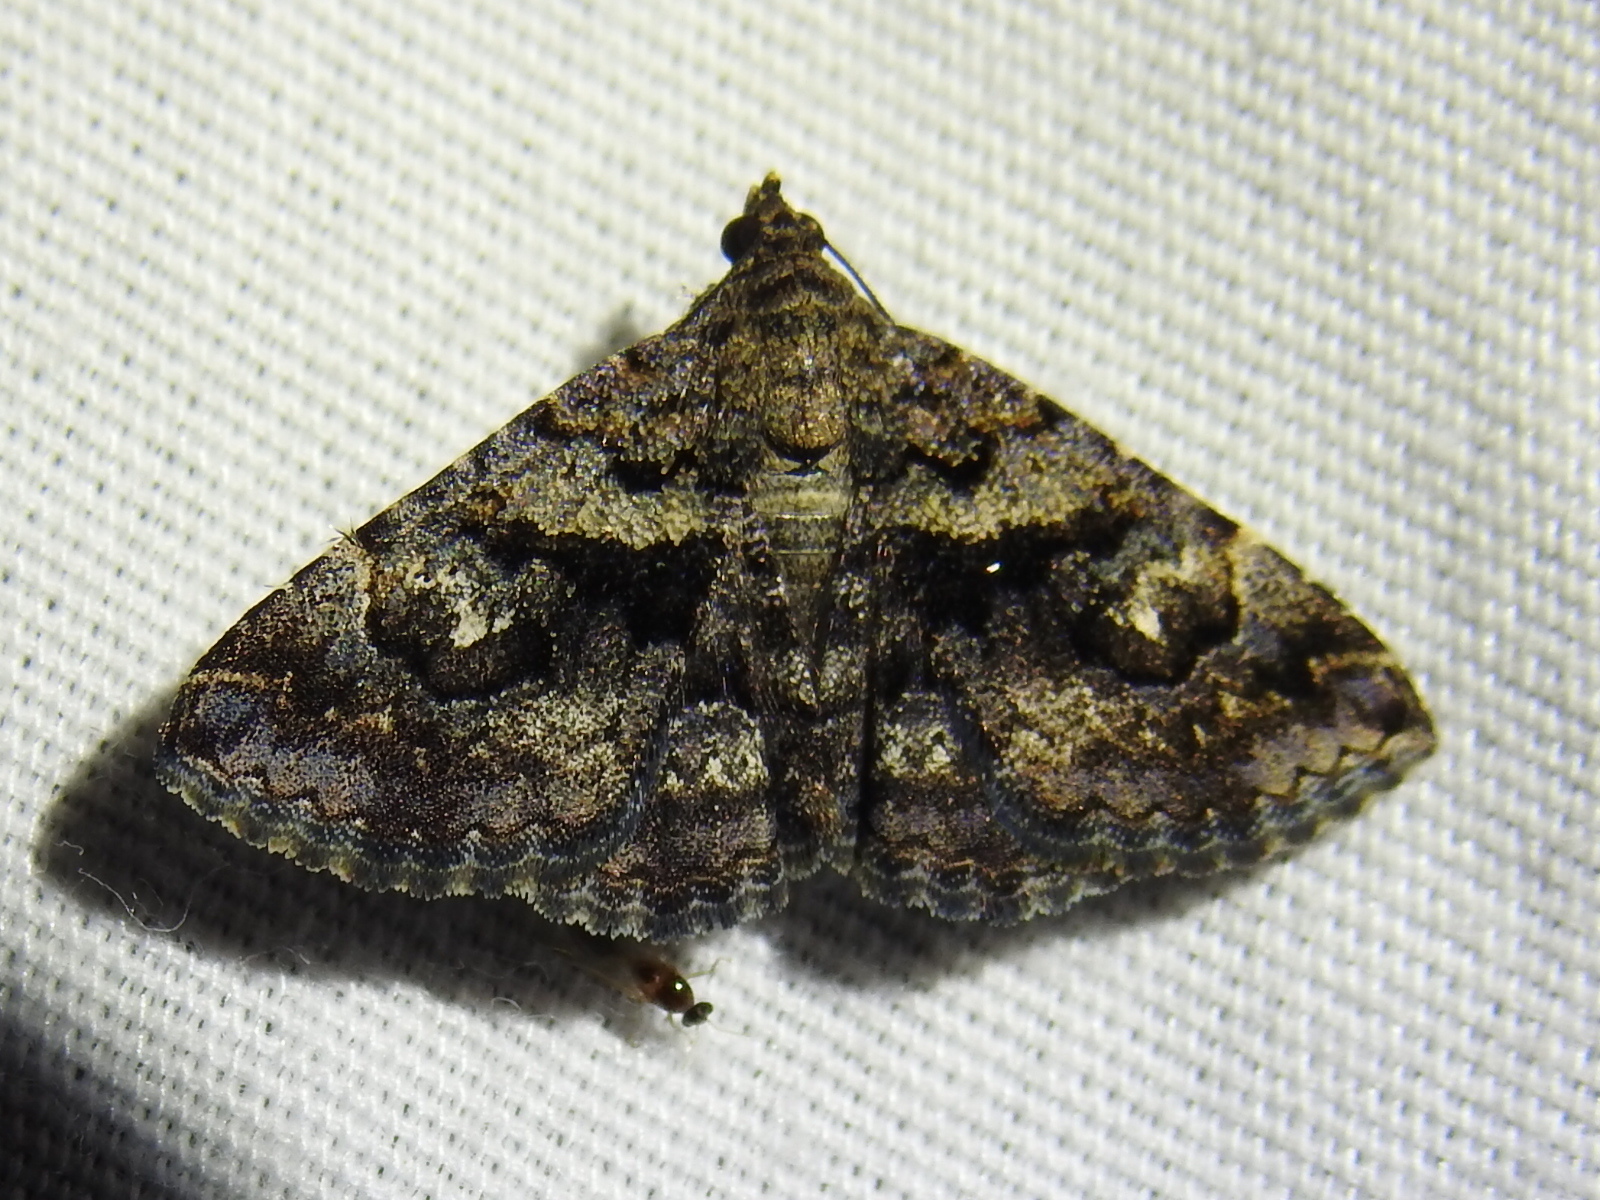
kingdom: Animalia
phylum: Arthropoda
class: Insecta
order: Lepidoptera
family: Erebidae
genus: Toxonprucha
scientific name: Toxonprucha excavata
